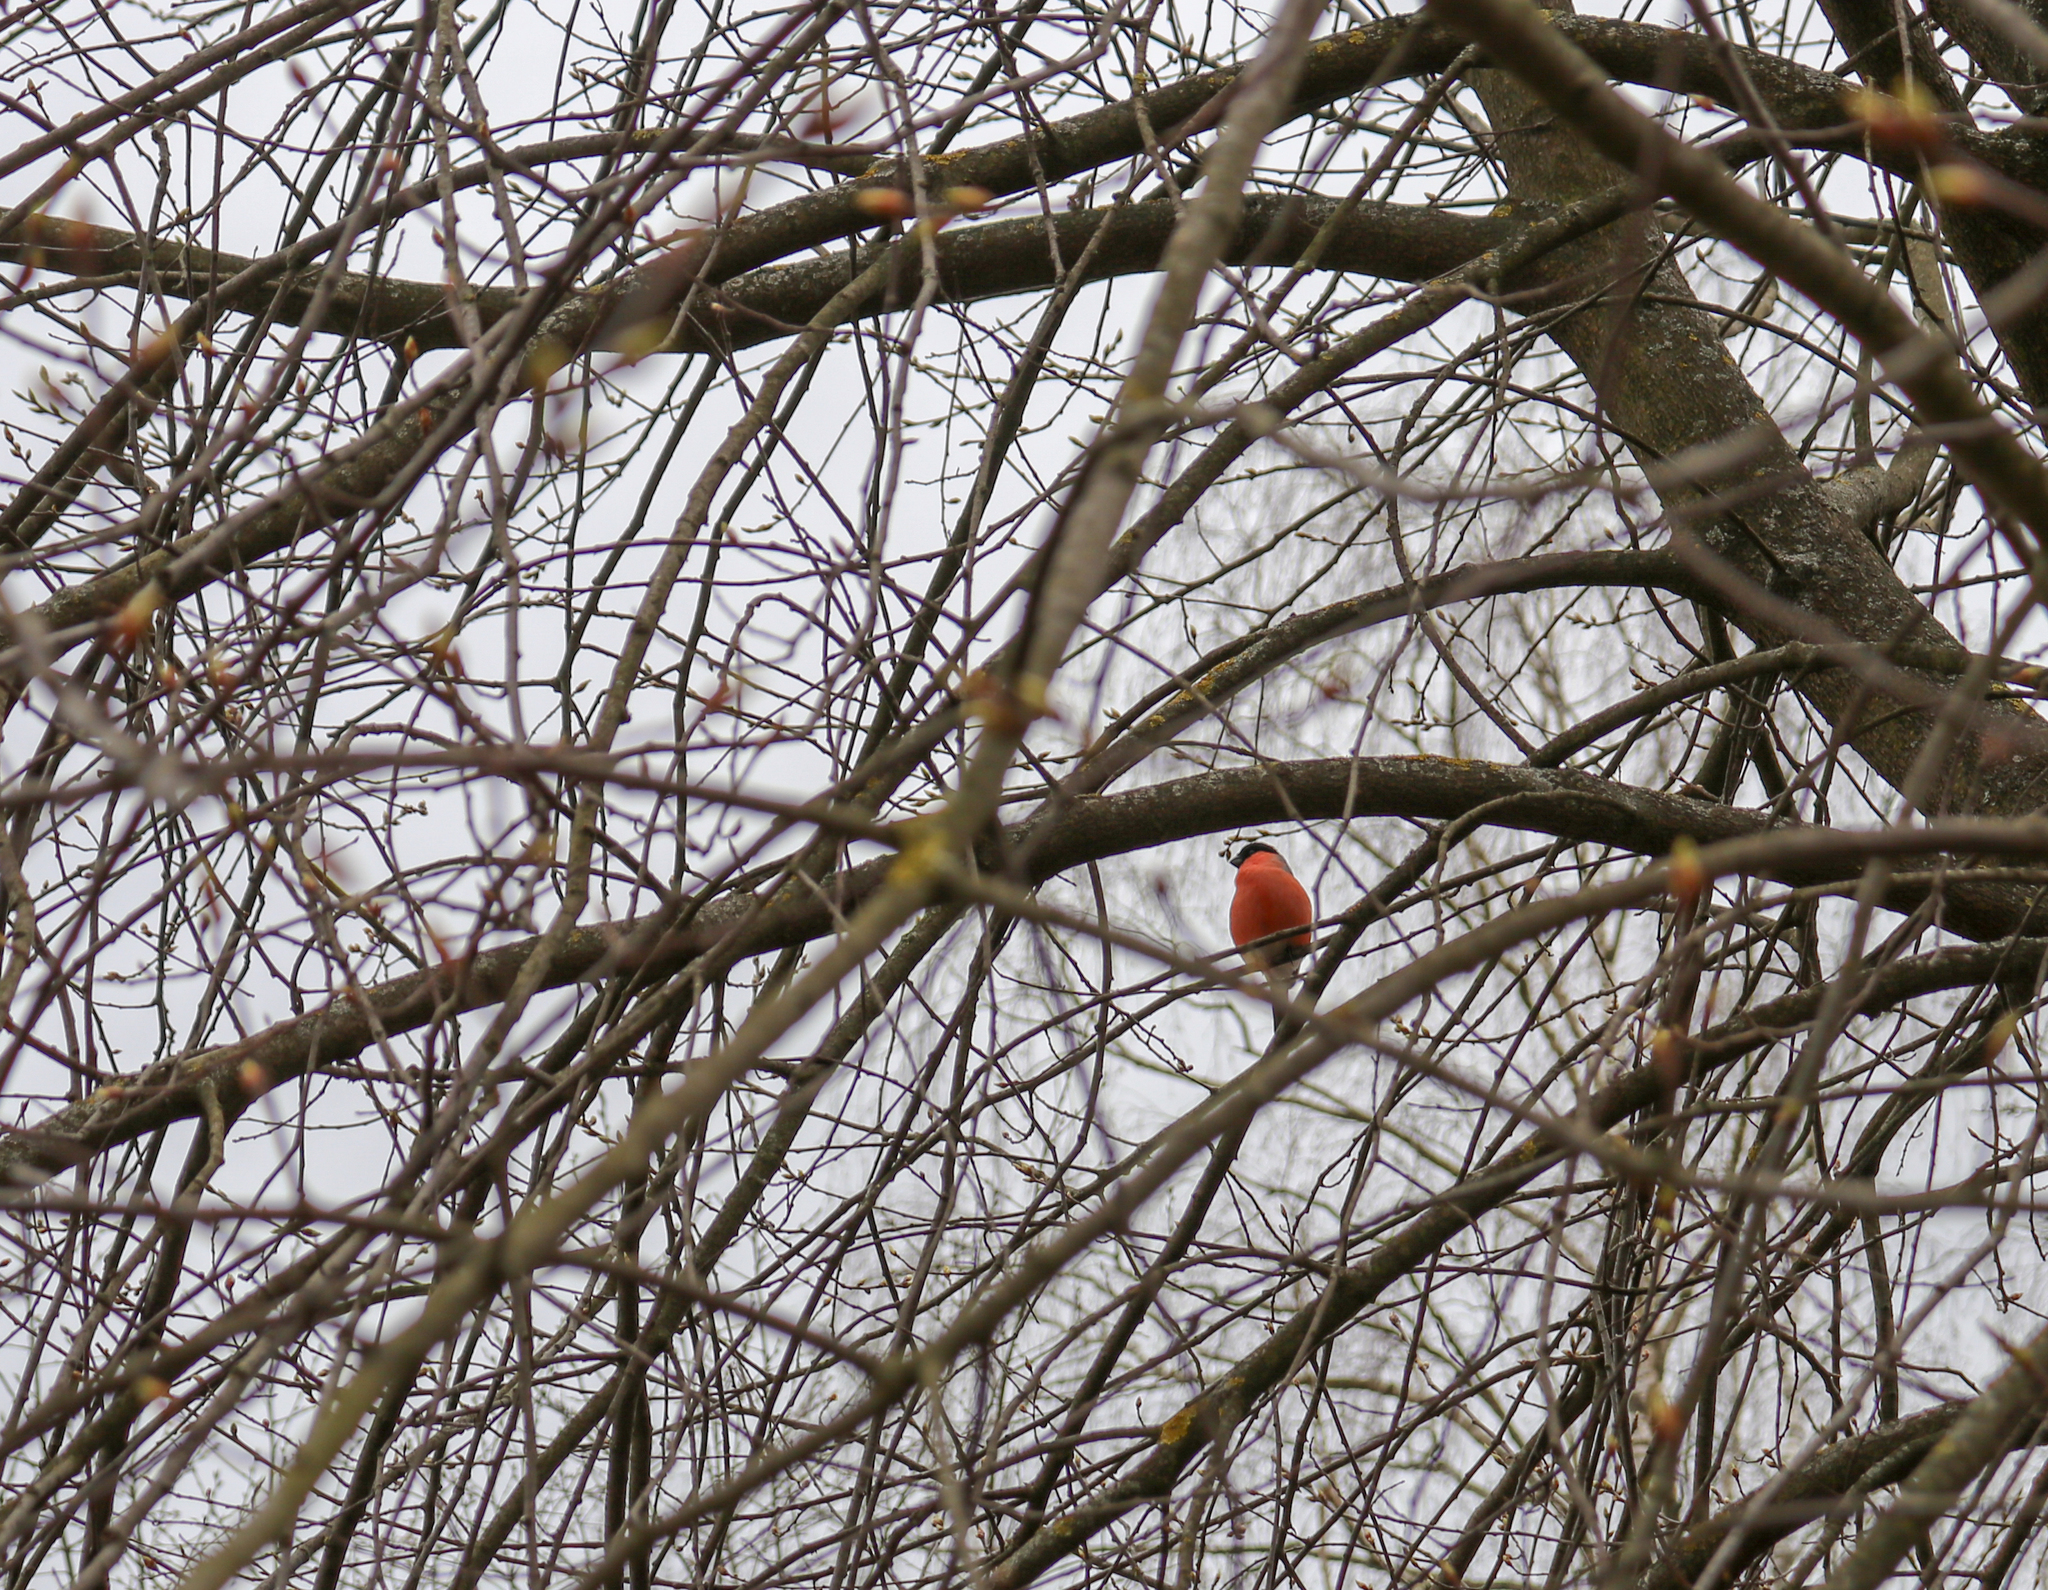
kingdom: Animalia
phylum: Chordata
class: Aves
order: Passeriformes
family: Fringillidae
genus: Pyrrhula
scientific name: Pyrrhula pyrrhula
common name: Eurasian bullfinch
